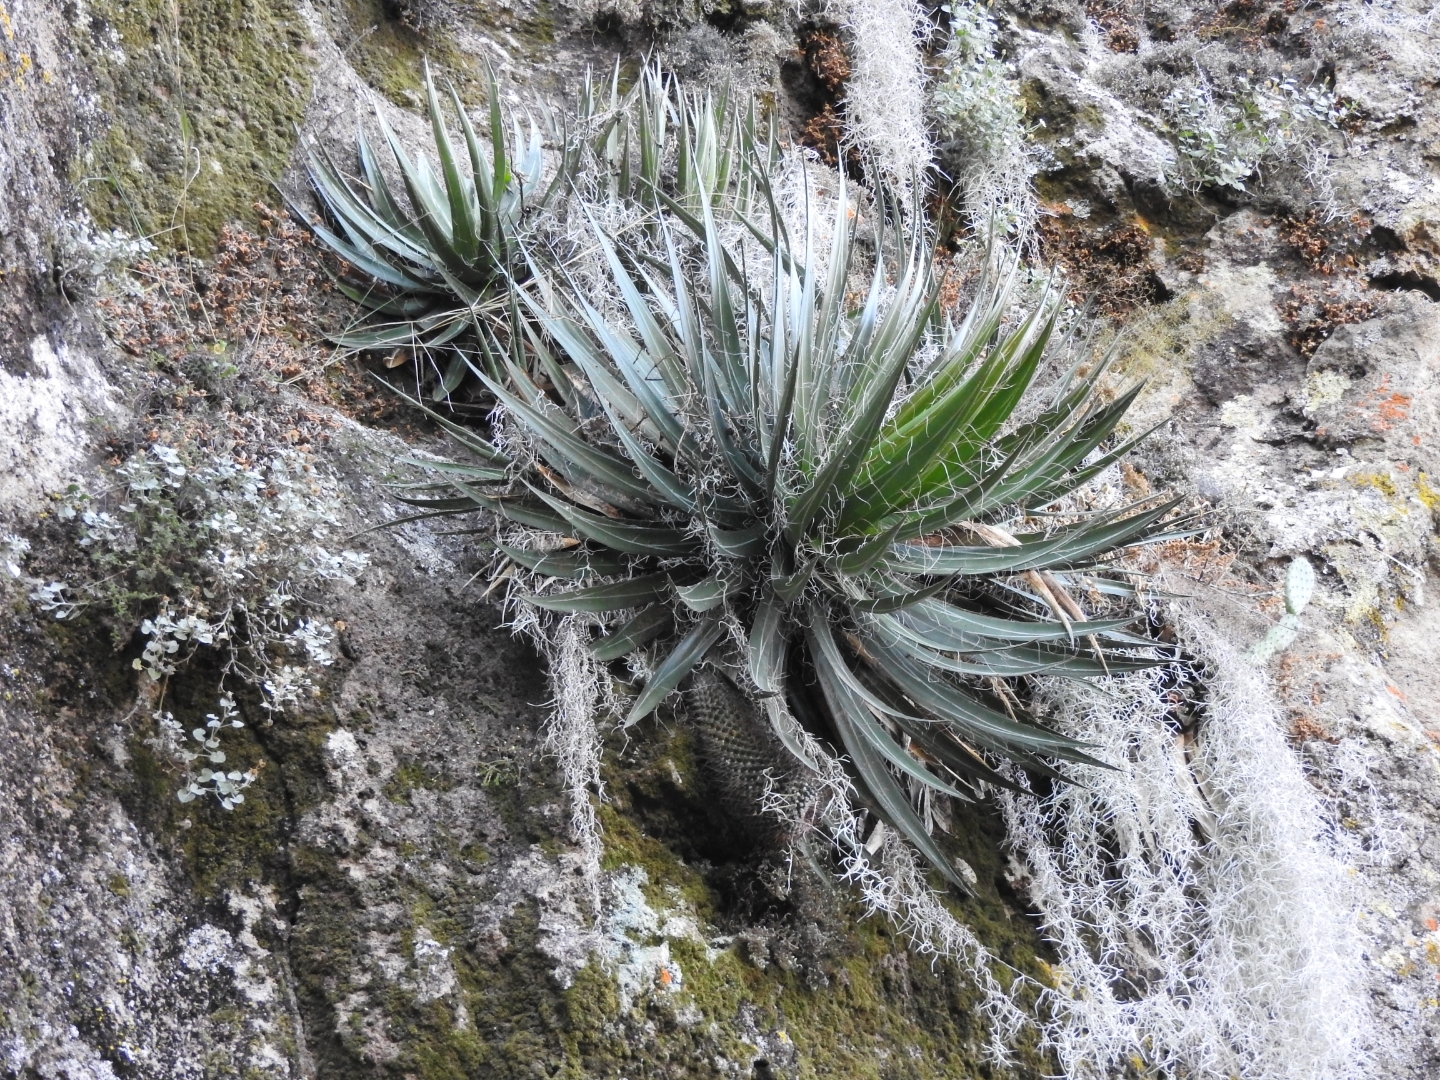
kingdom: Plantae
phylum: Tracheophyta
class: Liliopsida
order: Asparagales
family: Asparagaceae
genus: Agave
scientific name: Agave schidigera
